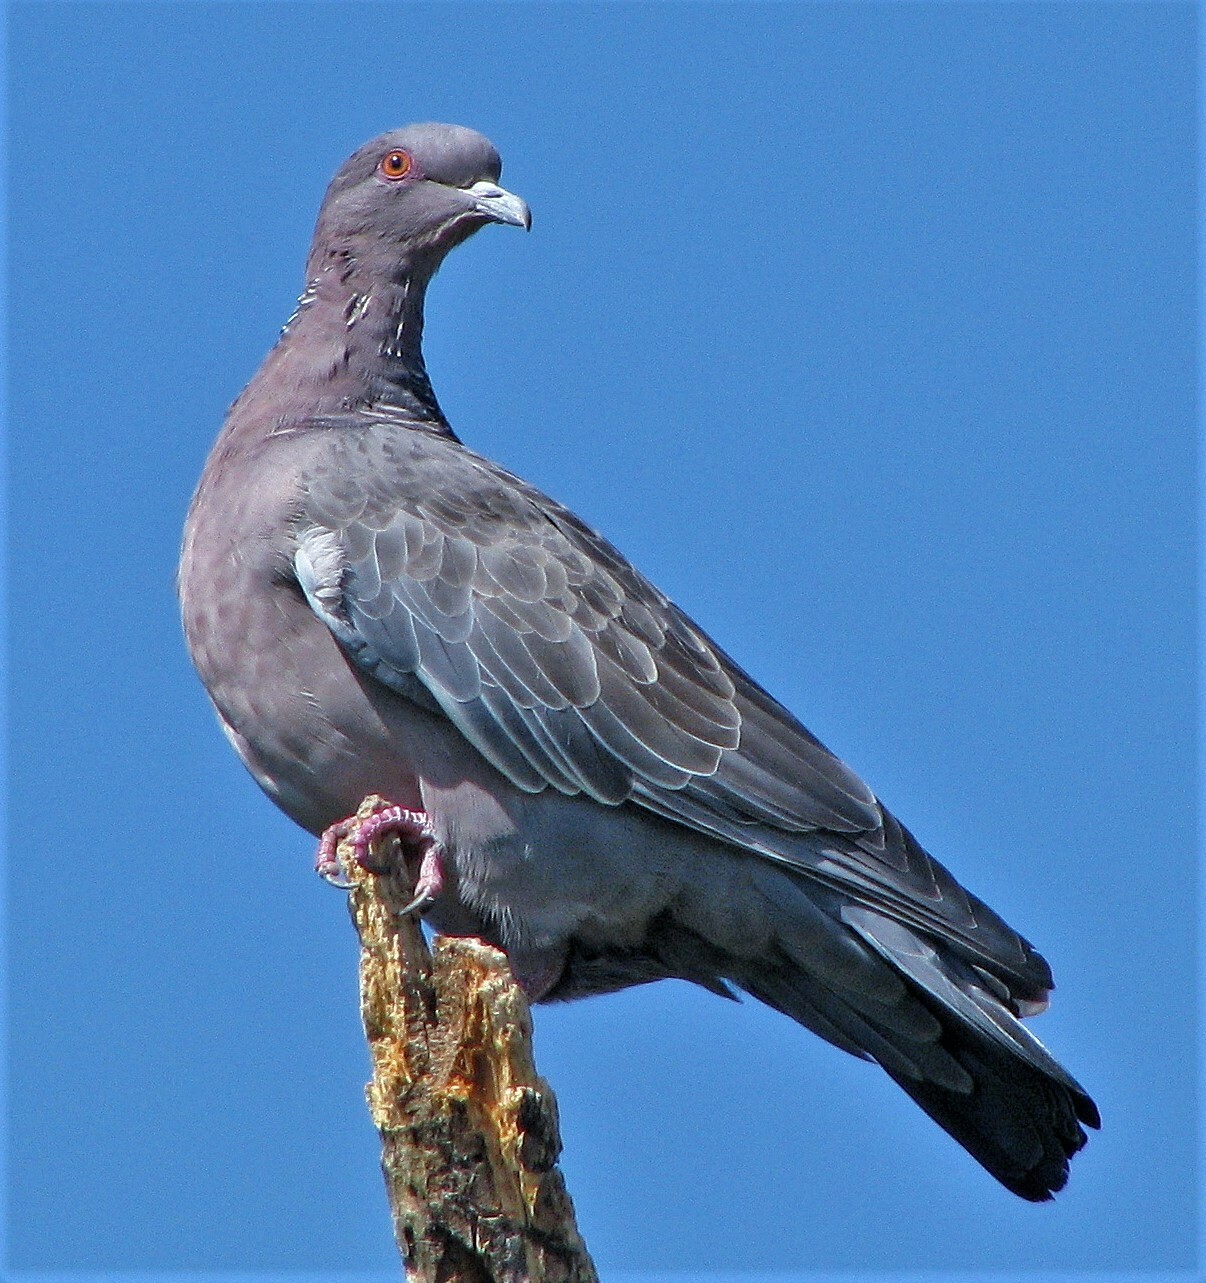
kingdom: Animalia
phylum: Chordata
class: Aves
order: Columbiformes
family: Columbidae
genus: Patagioenas
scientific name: Patagioenas picazuro
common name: Picazuro pigeon
